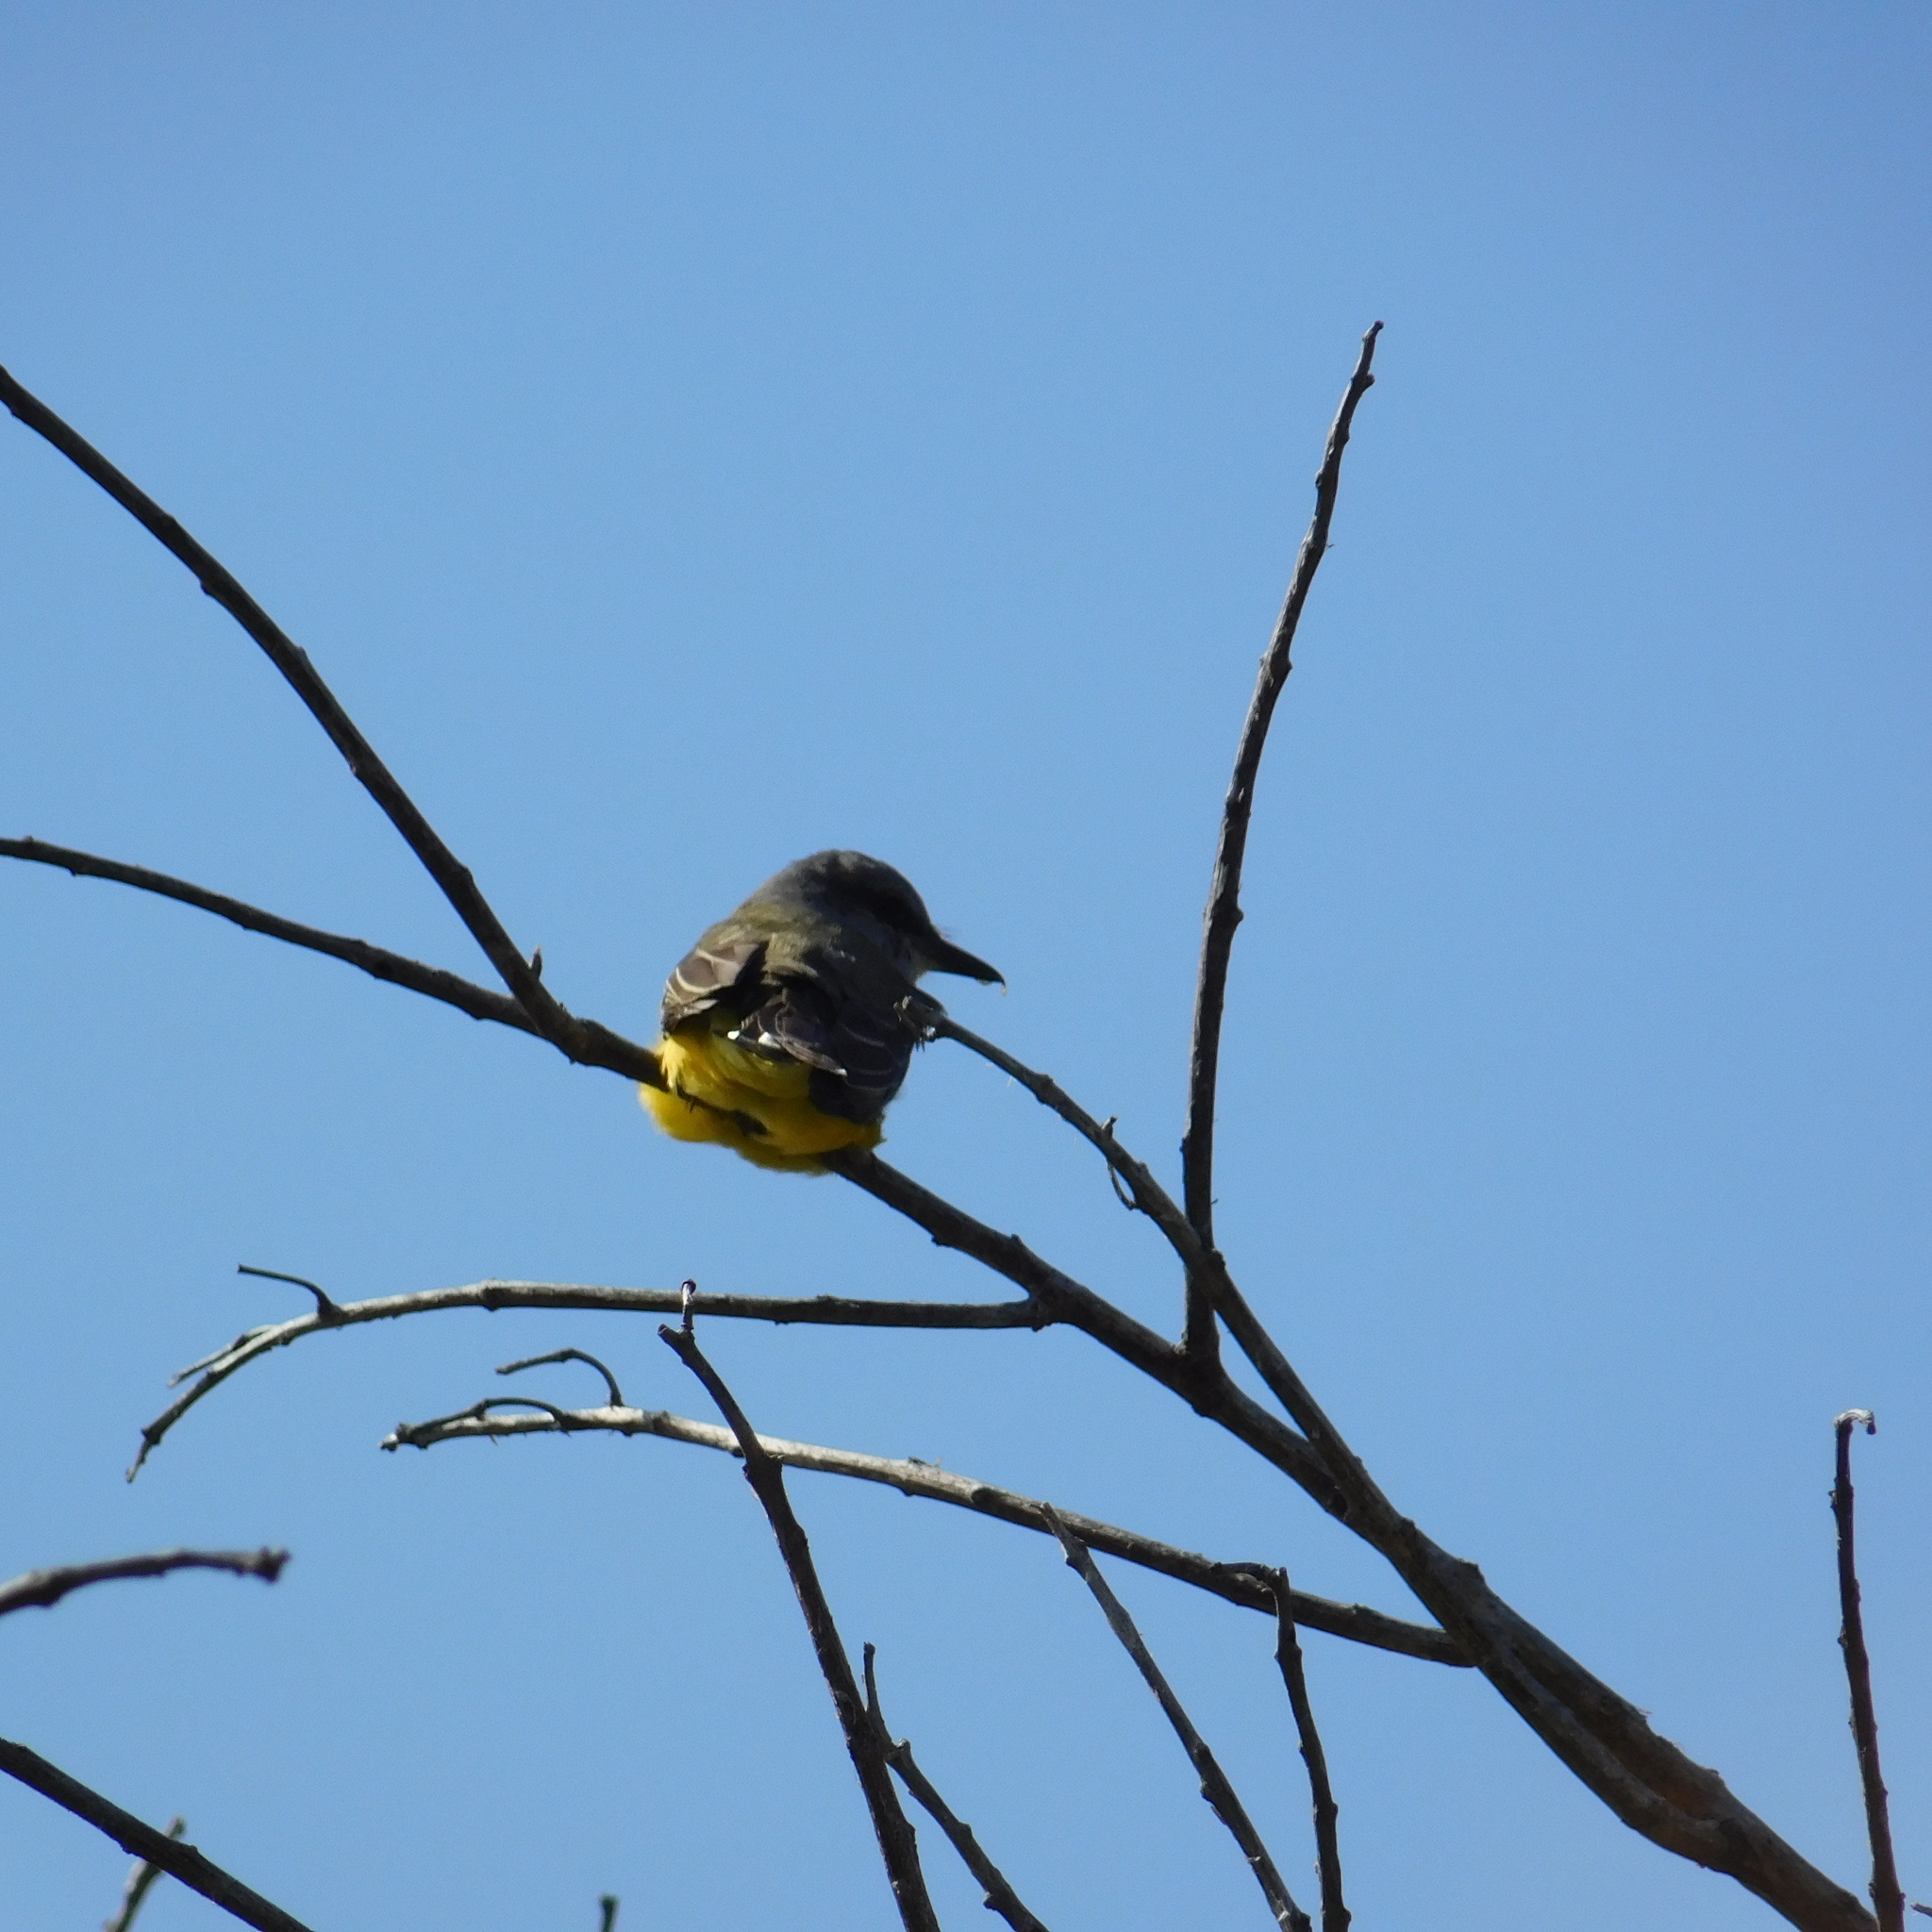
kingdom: Animalia
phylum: Chordata
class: Aves
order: Passeriformes
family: Tyrannidae
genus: Tyrannus
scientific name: Tyrannus melancholicus
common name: Tropical kingbird
